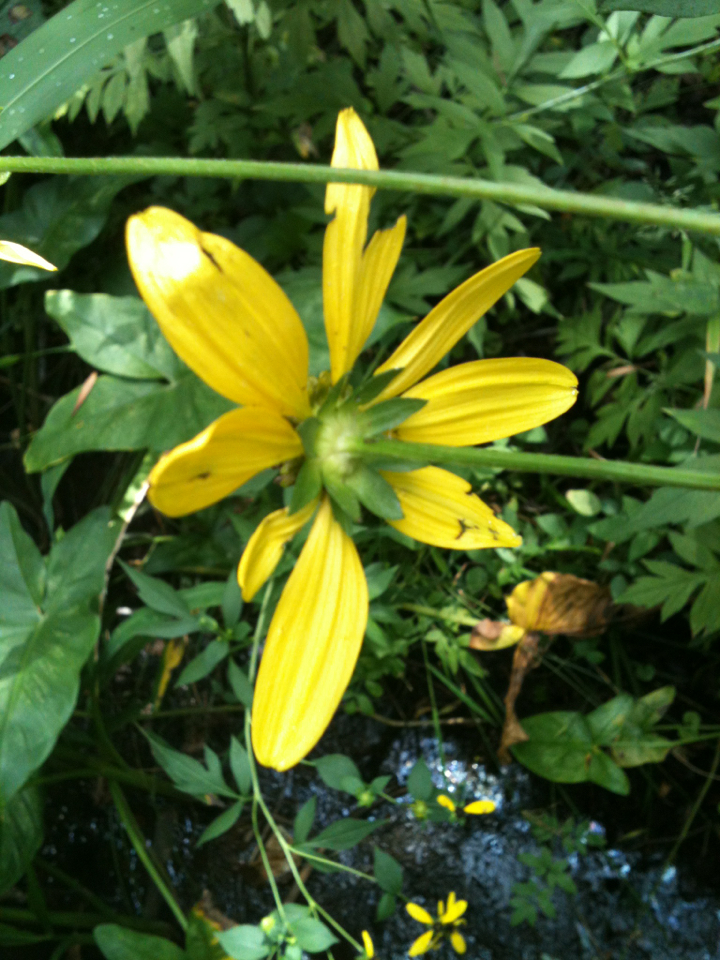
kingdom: Plantae
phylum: Tracheophyta
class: Magnoliopsida
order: Asterales
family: Asteraceae
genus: Rudbeckia
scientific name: Rudbeckia laciniata
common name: Coneflower
